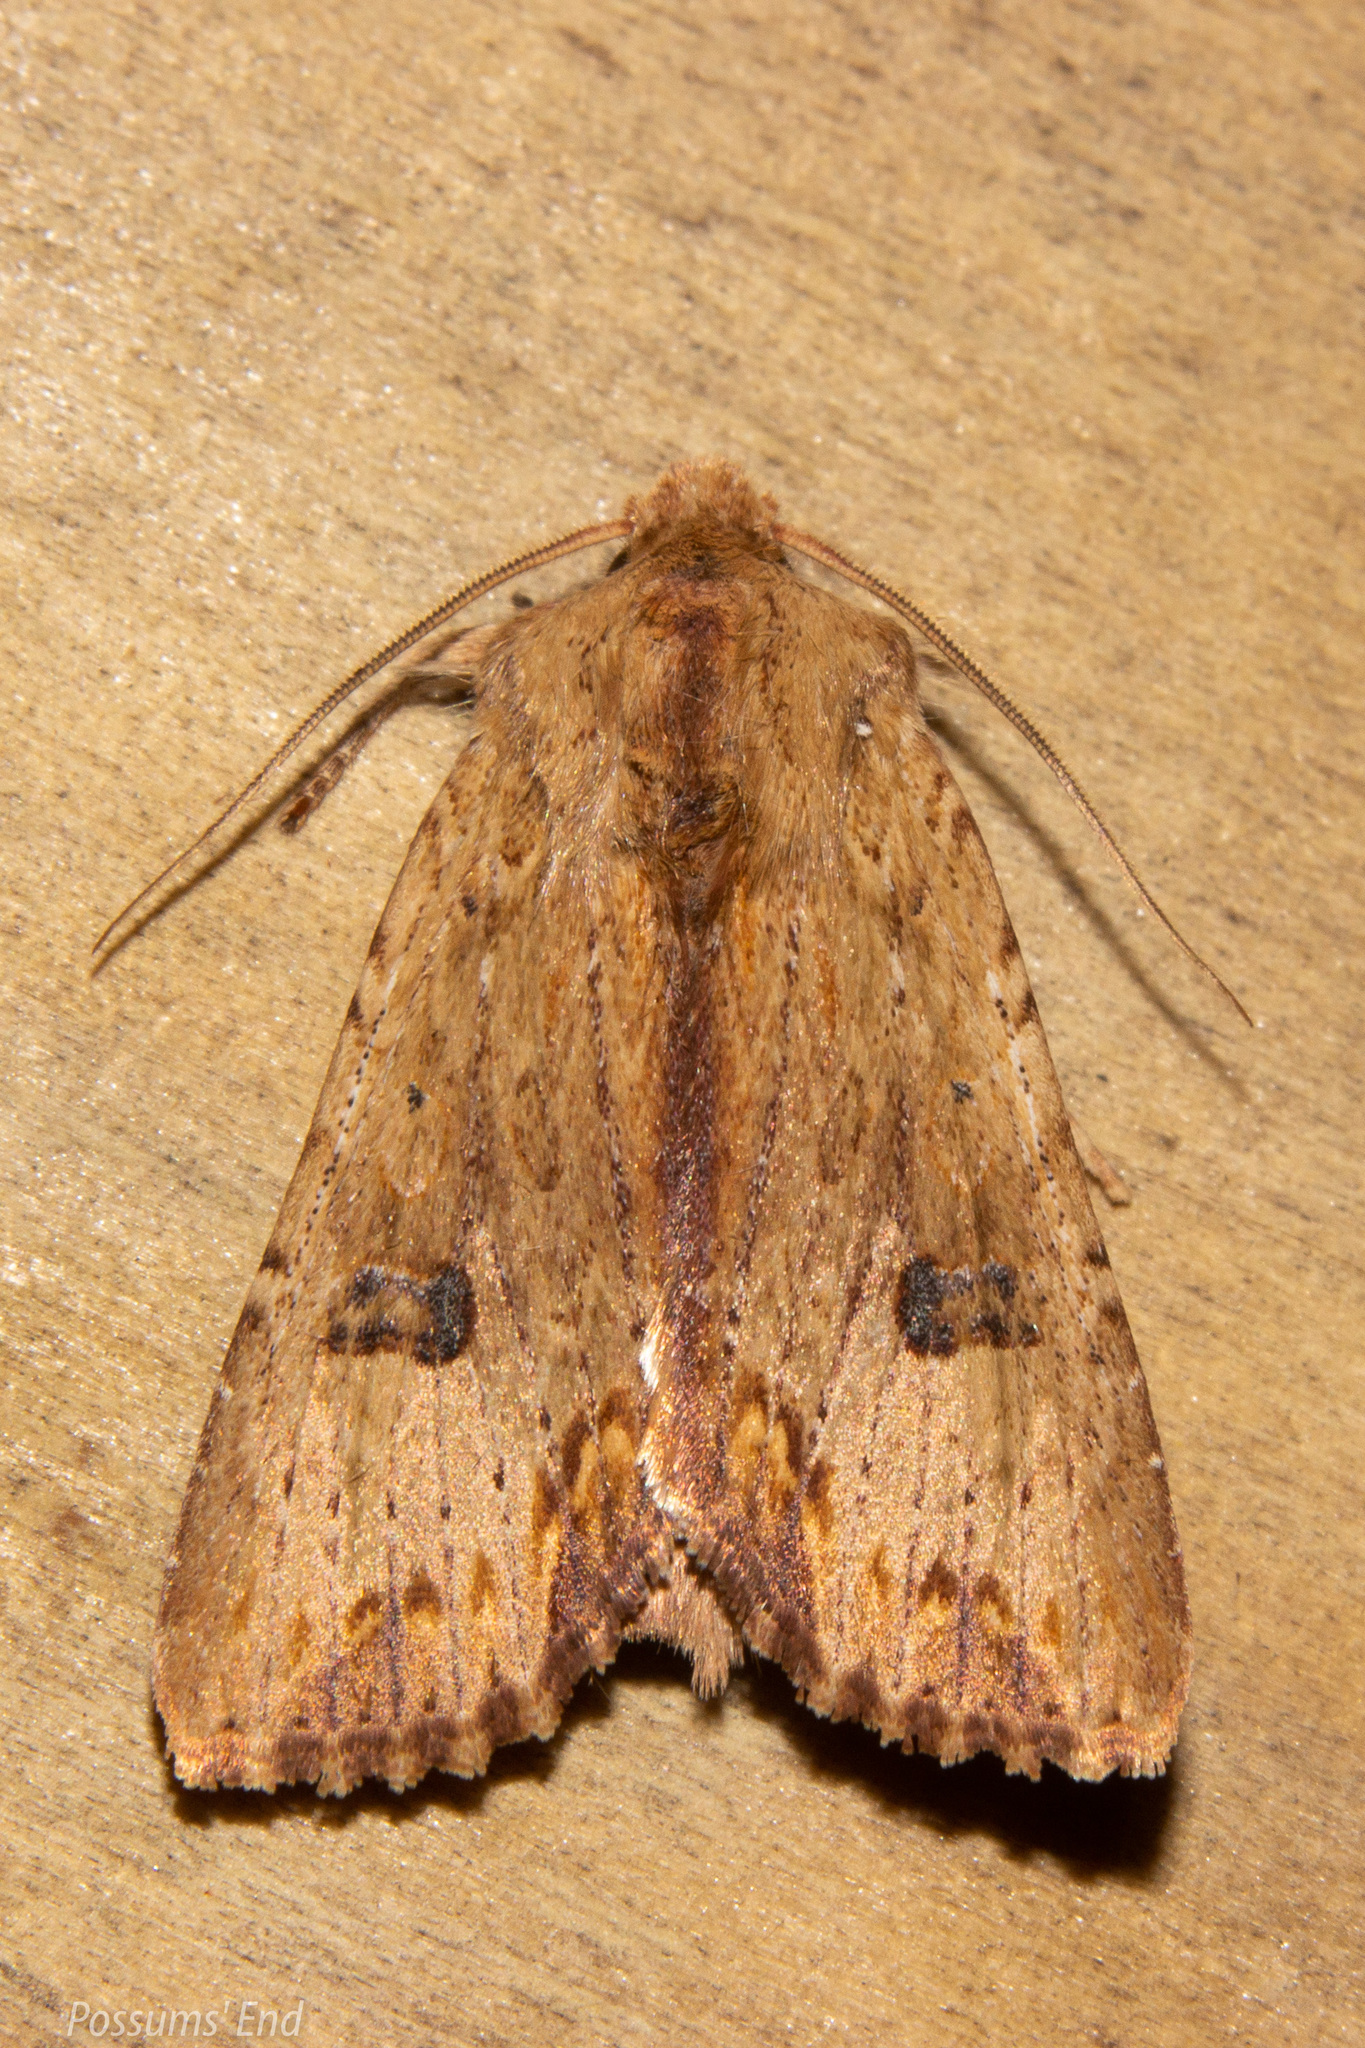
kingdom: Animalia
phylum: Arthropoda
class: Insecta
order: Lepidoptera
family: Noctuidae
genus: Ichneutica
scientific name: Ichneutica
